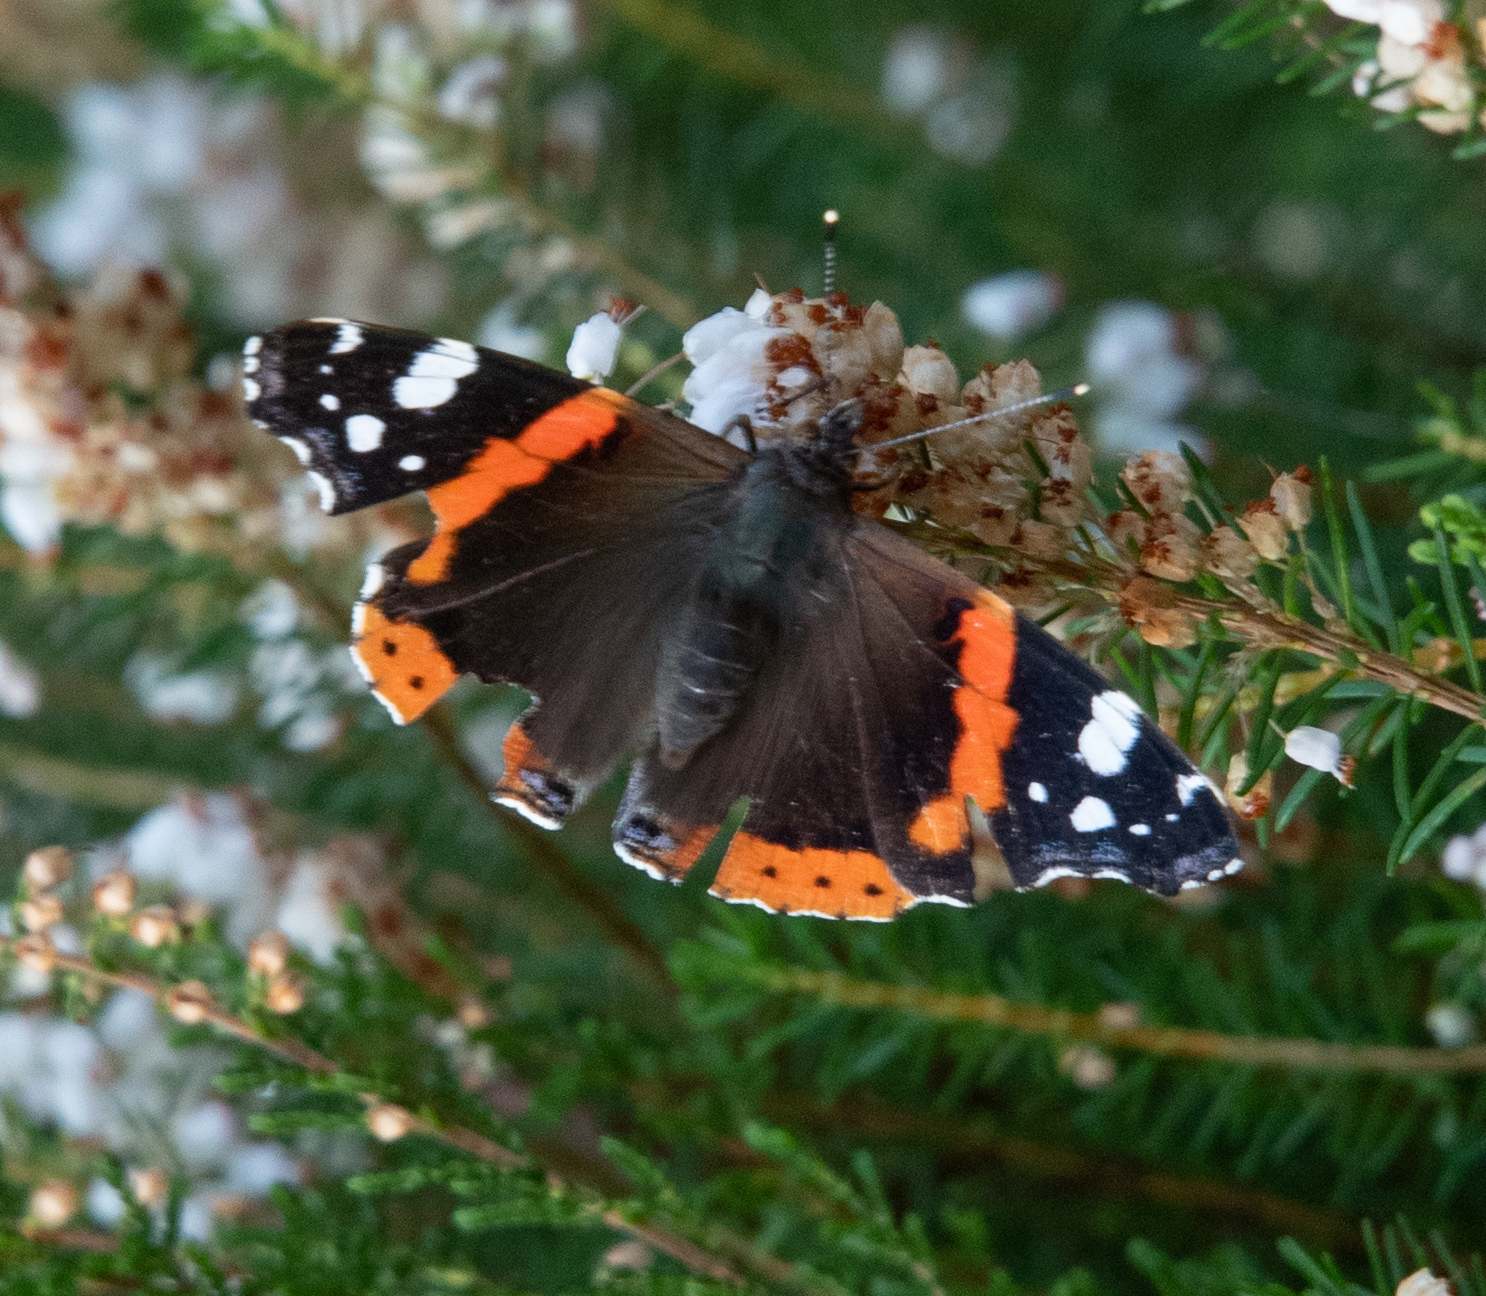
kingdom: Animalia
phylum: Arthropoda
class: Insecta
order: Lepidoptera
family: Nymphalidae
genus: Vanessa
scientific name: Vanessa atalanta
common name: Red admiral
